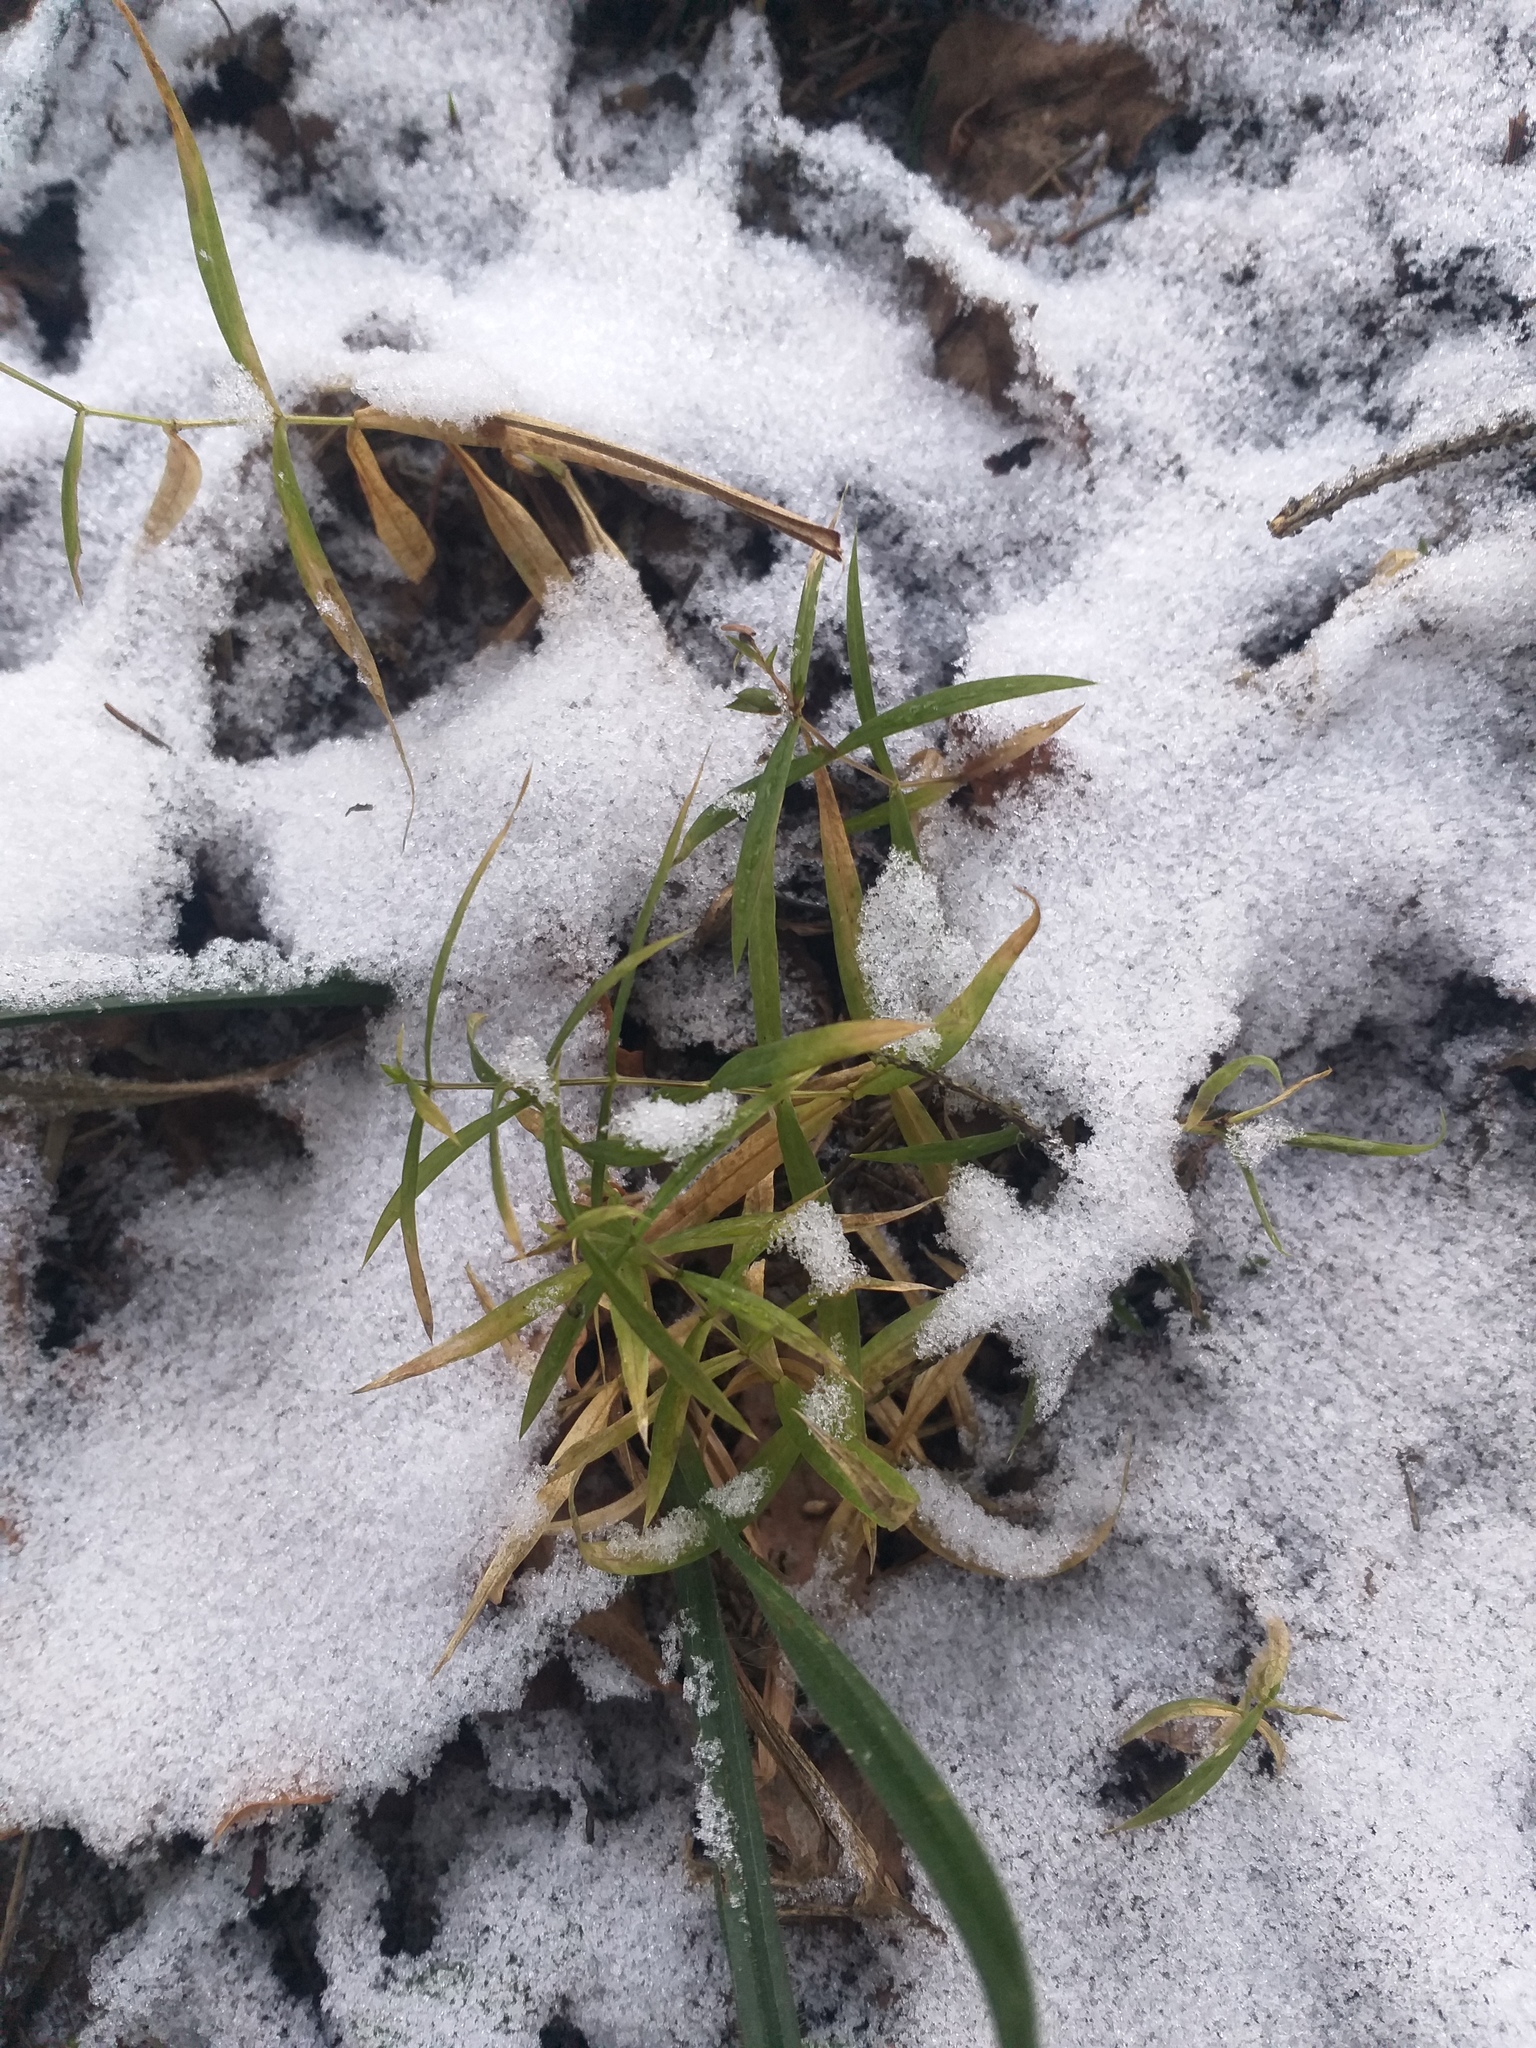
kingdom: Plantae
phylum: Tracheophyta
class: Magnoliopsida
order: Caryophyllales
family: Caryophyllaceae
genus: Rabelera
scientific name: Rabelera holostea
